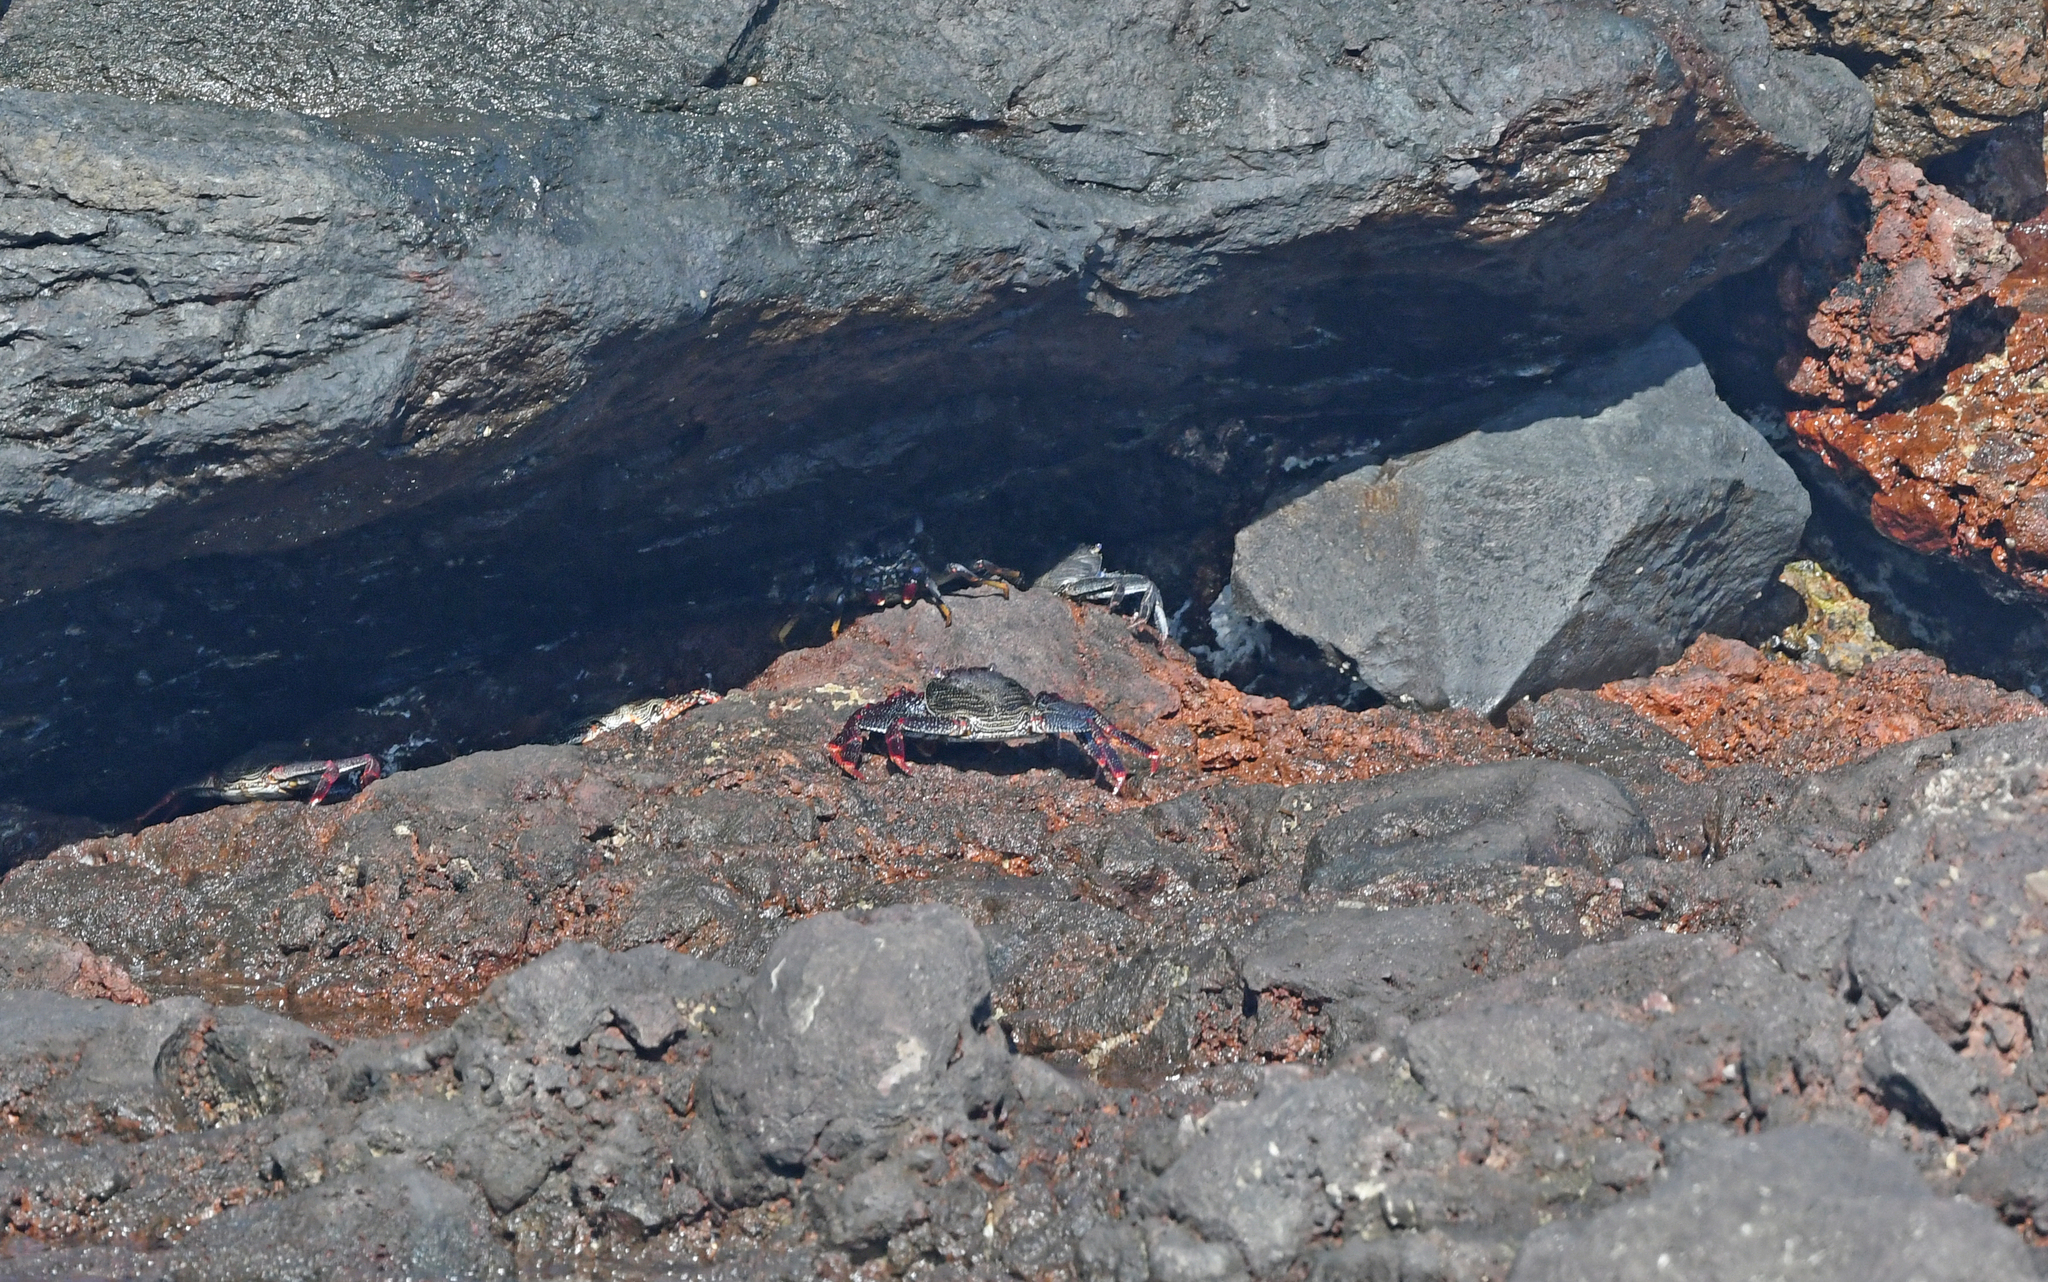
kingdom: Animalia
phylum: Arthropoda
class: Malacostraca
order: Decapoda
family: Grapsidae
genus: Grapsus
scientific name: Grapsus adscensionis
